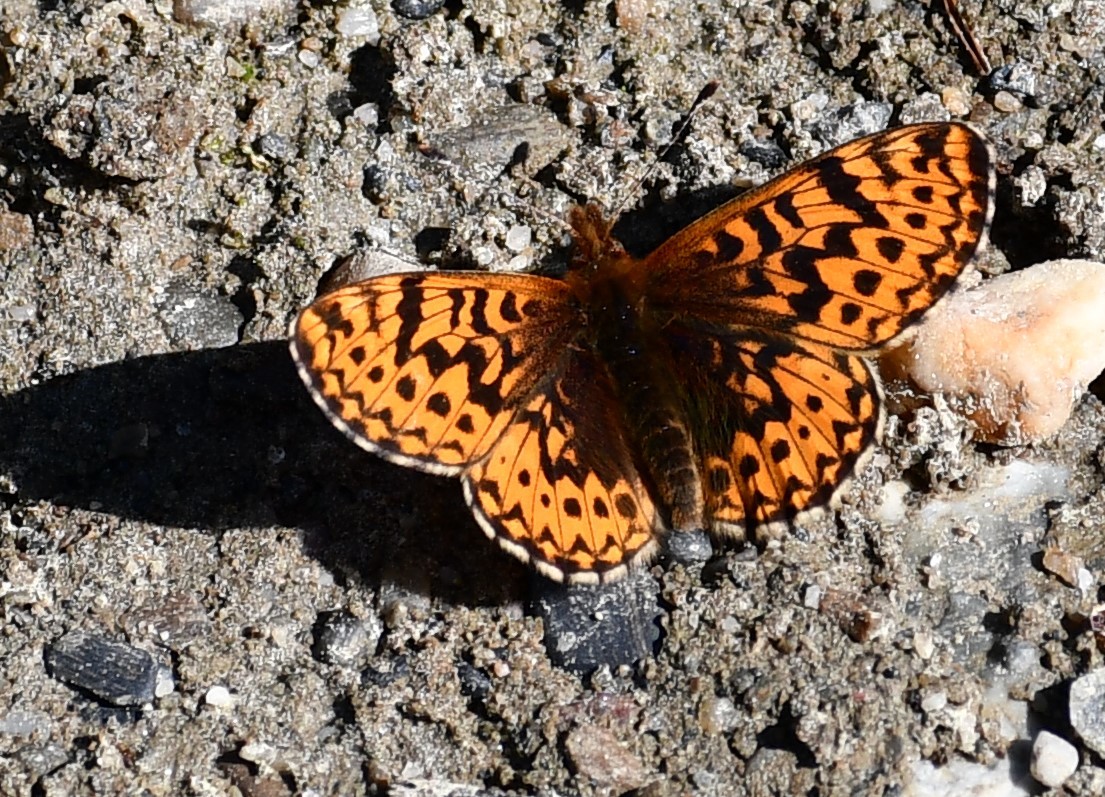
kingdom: Animalia
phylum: Arthropoda
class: Insecta
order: Lepidoptera
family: Nymphalidae
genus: Boloria
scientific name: Boloria freija
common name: Freija fritillary
